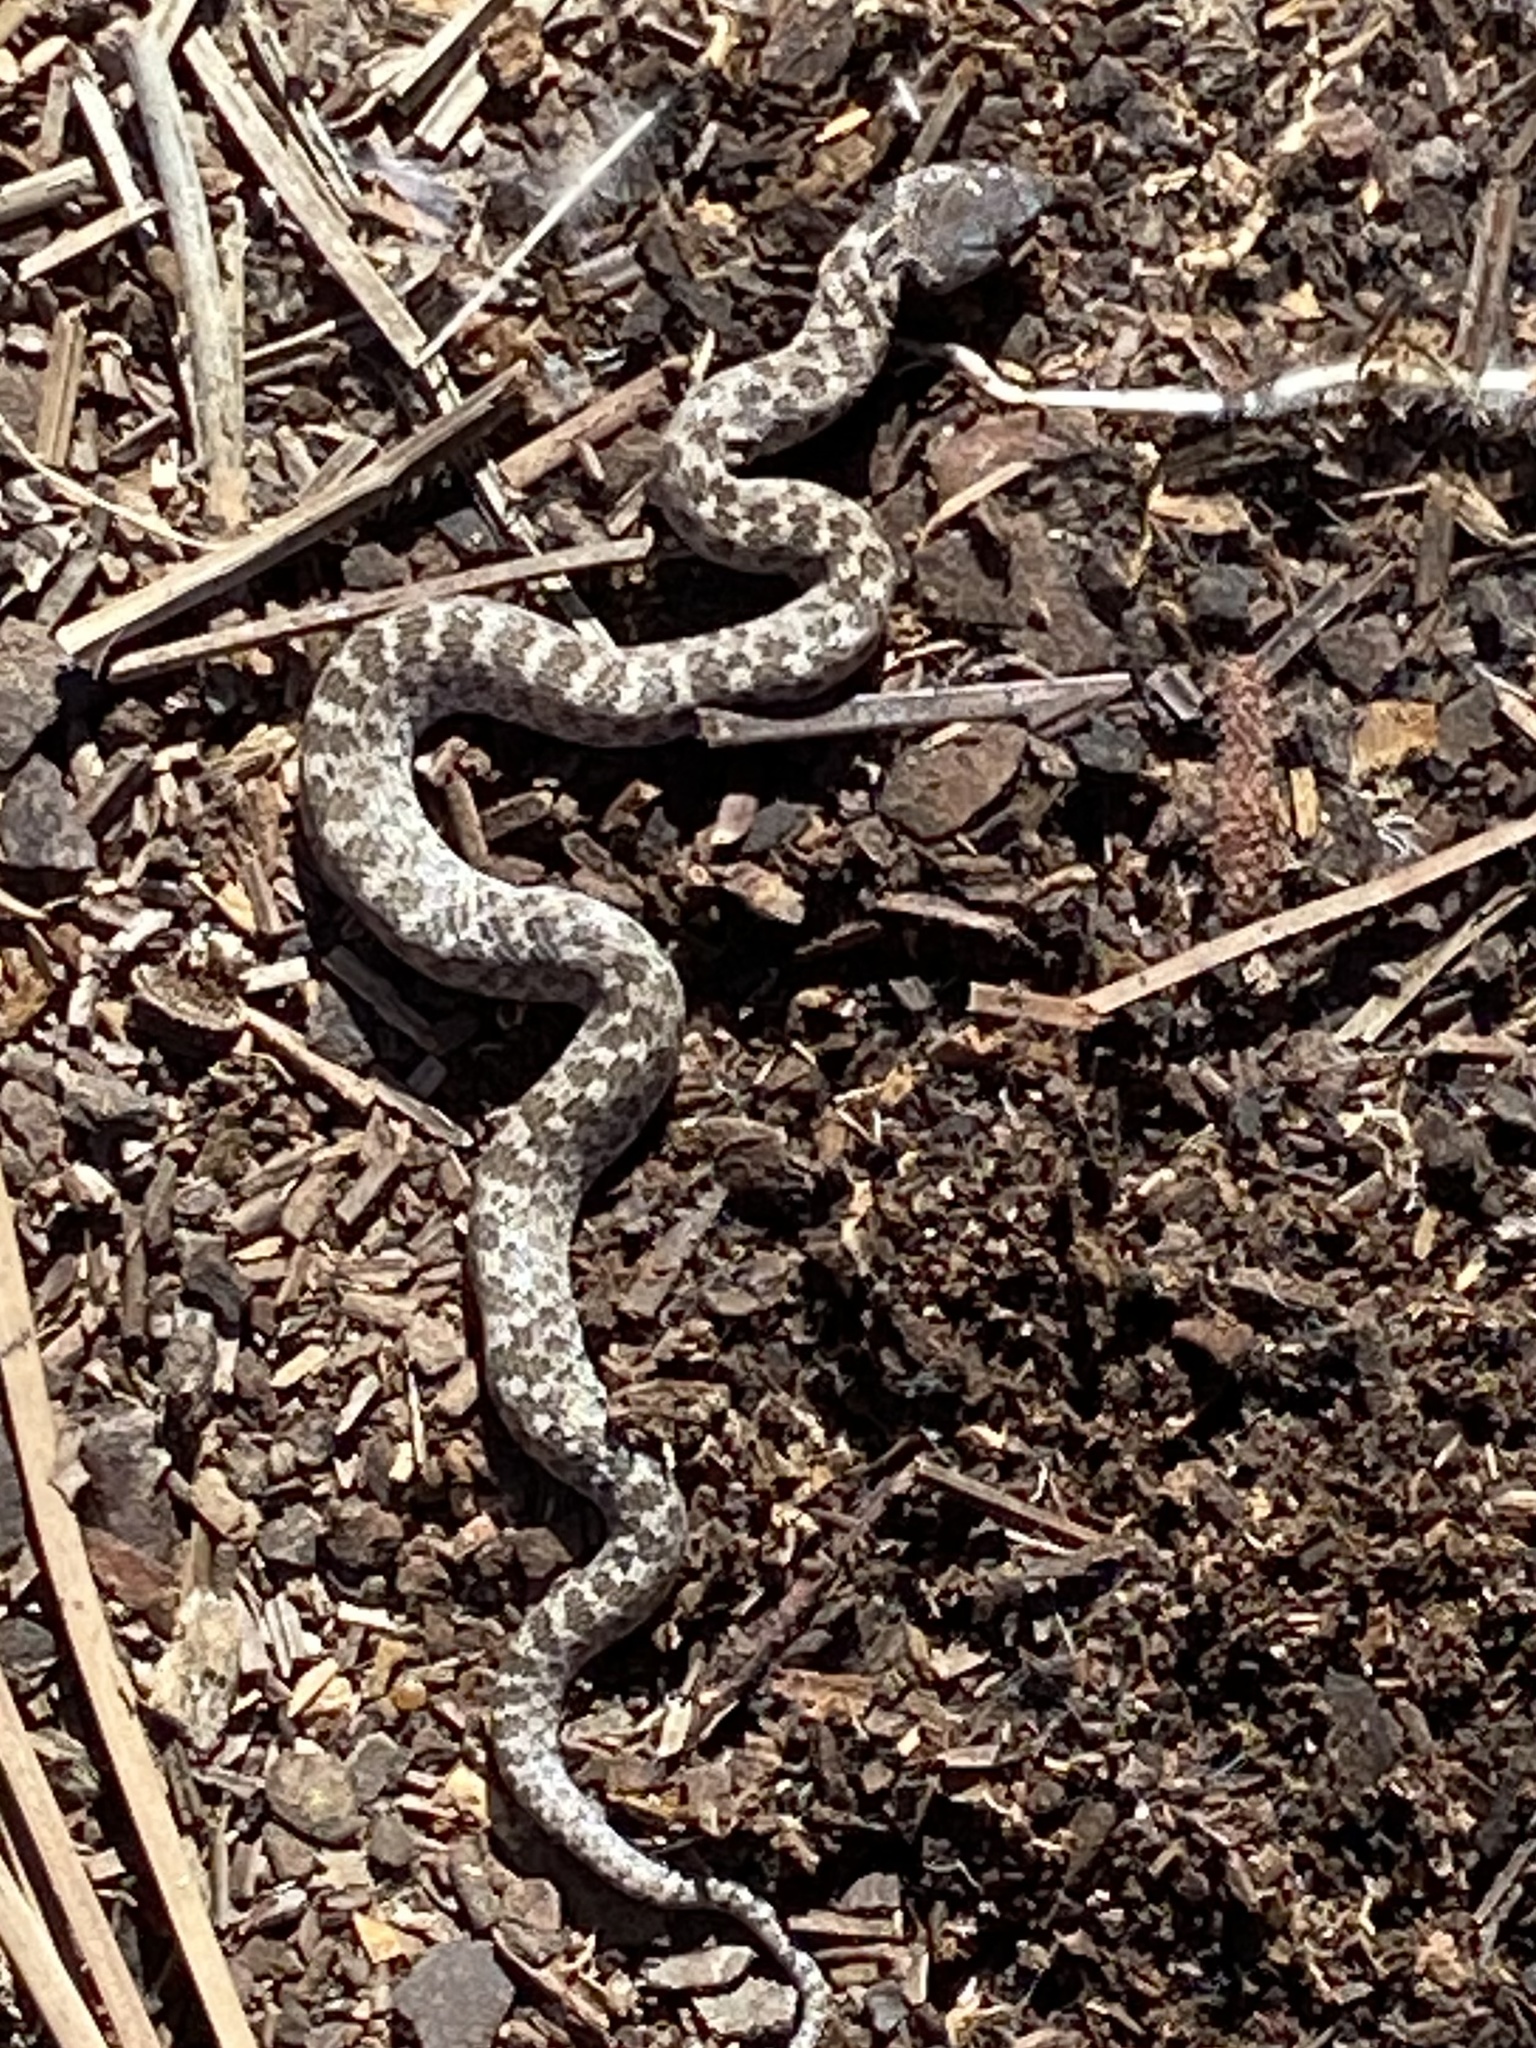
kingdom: Animalia
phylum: Chordata
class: Squamata
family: Colubridae
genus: Hypsiglena
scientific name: Hypsiglena ochrorhynchus
